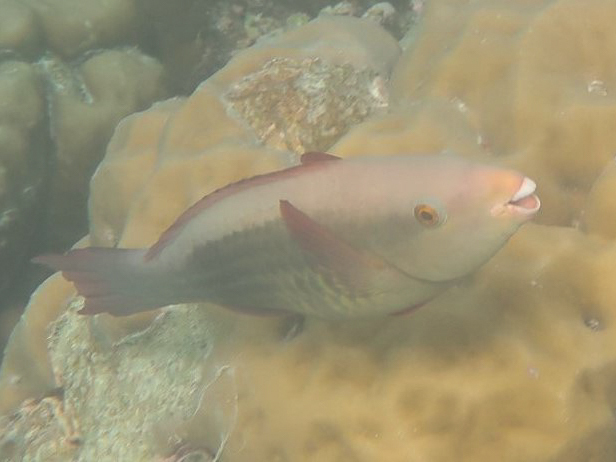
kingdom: Animalia
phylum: Chordata
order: Perciformes
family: Scaridae
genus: Scarus
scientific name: Scarus frenatus
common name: Bridled parrotfish
